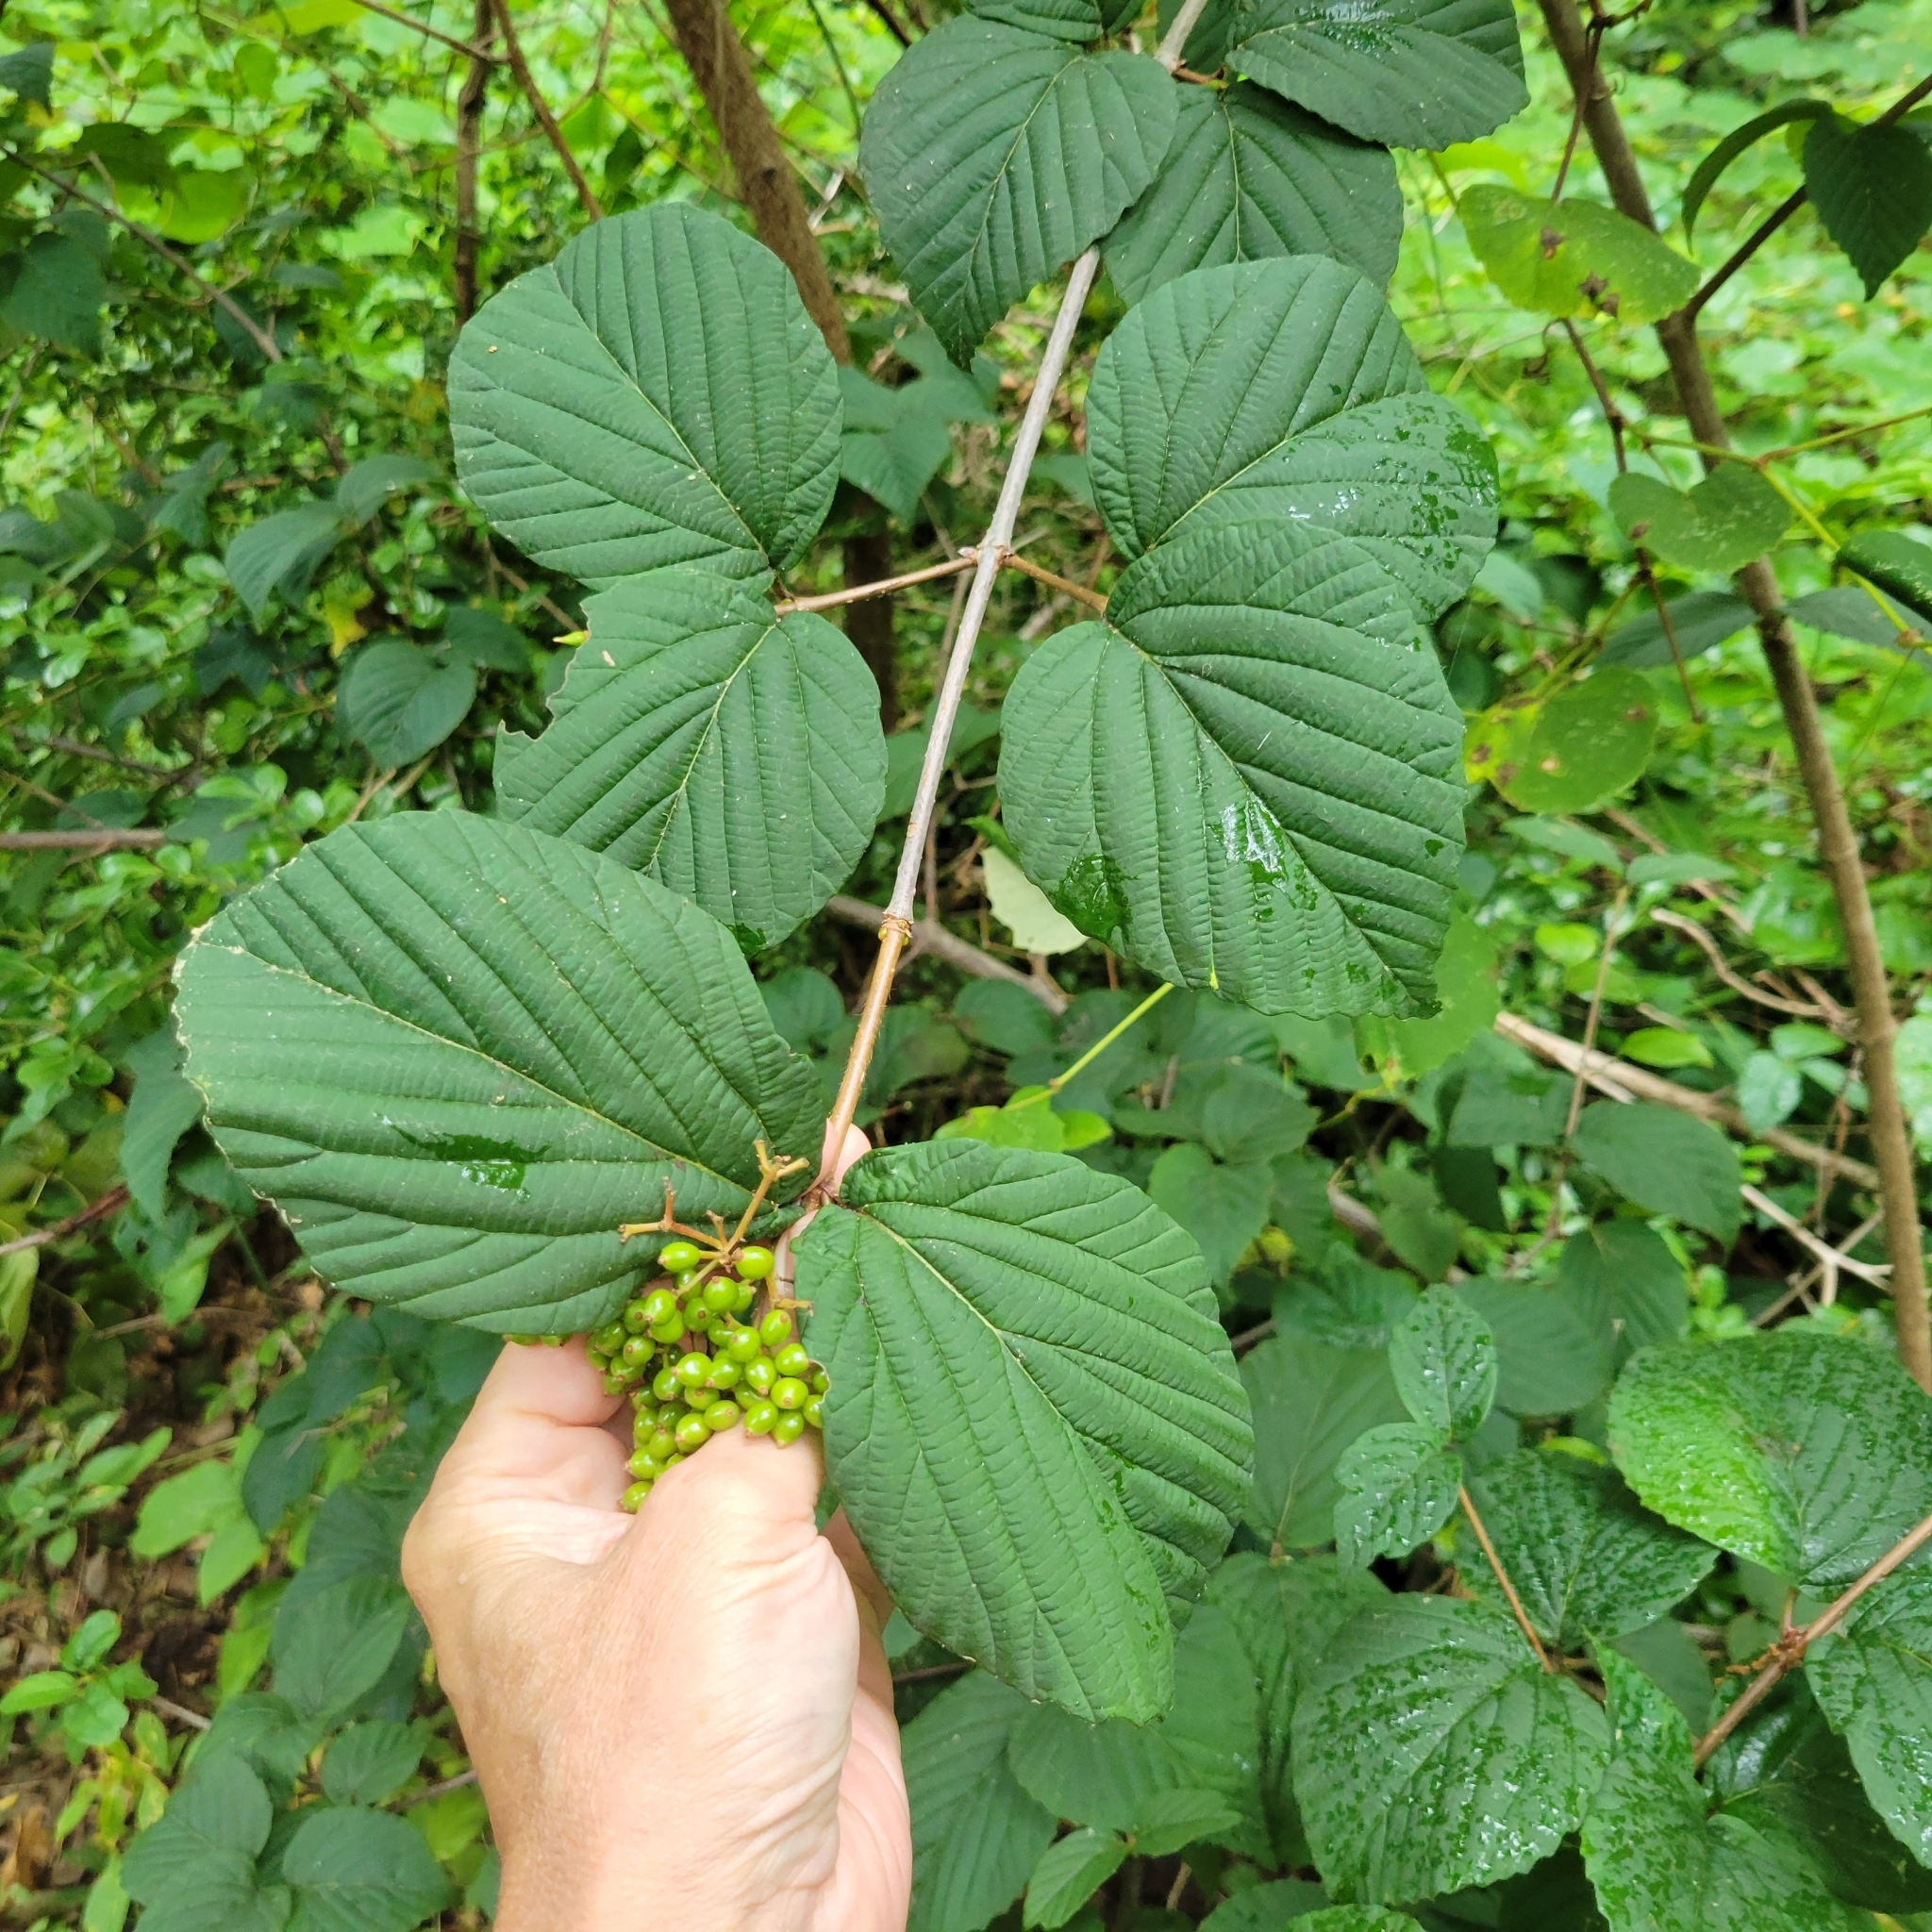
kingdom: Plantae
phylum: Tracheophyta
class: Magnoliopsida
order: Dipsacales
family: Viburnaceae
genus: Viburnum
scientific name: Viburnum wrightii
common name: Wright's viburnum
